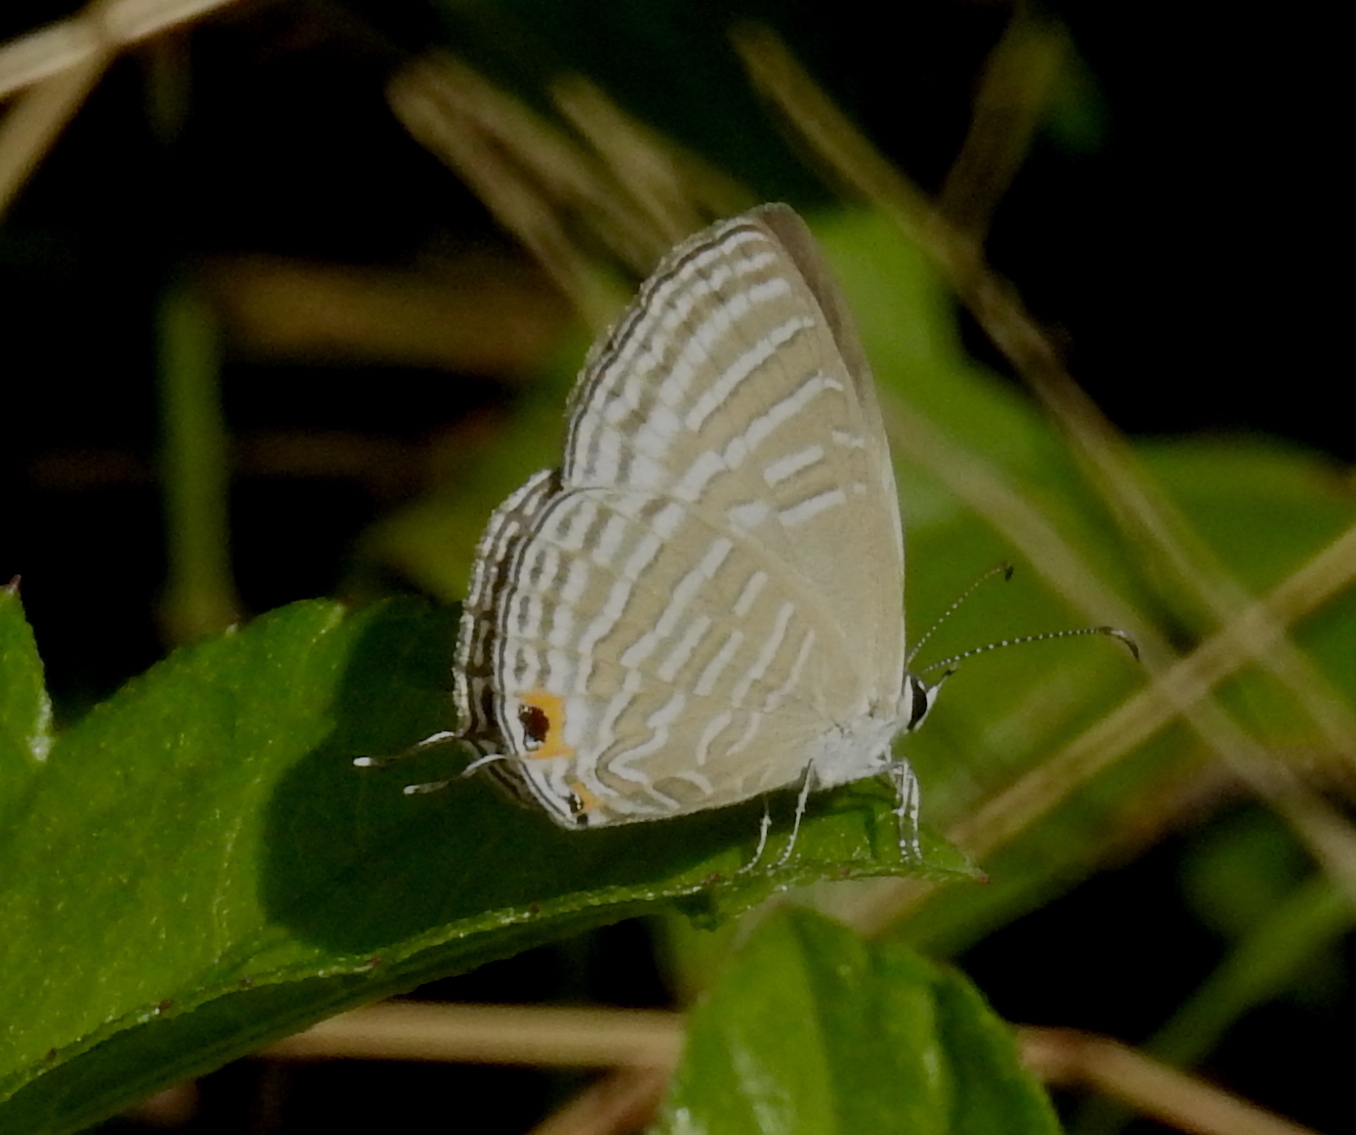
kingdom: Animalia
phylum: Arthropoda
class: Insecta
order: Lepidoptera
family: Lycaenidae
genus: Jamides
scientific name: Jamides celeno
